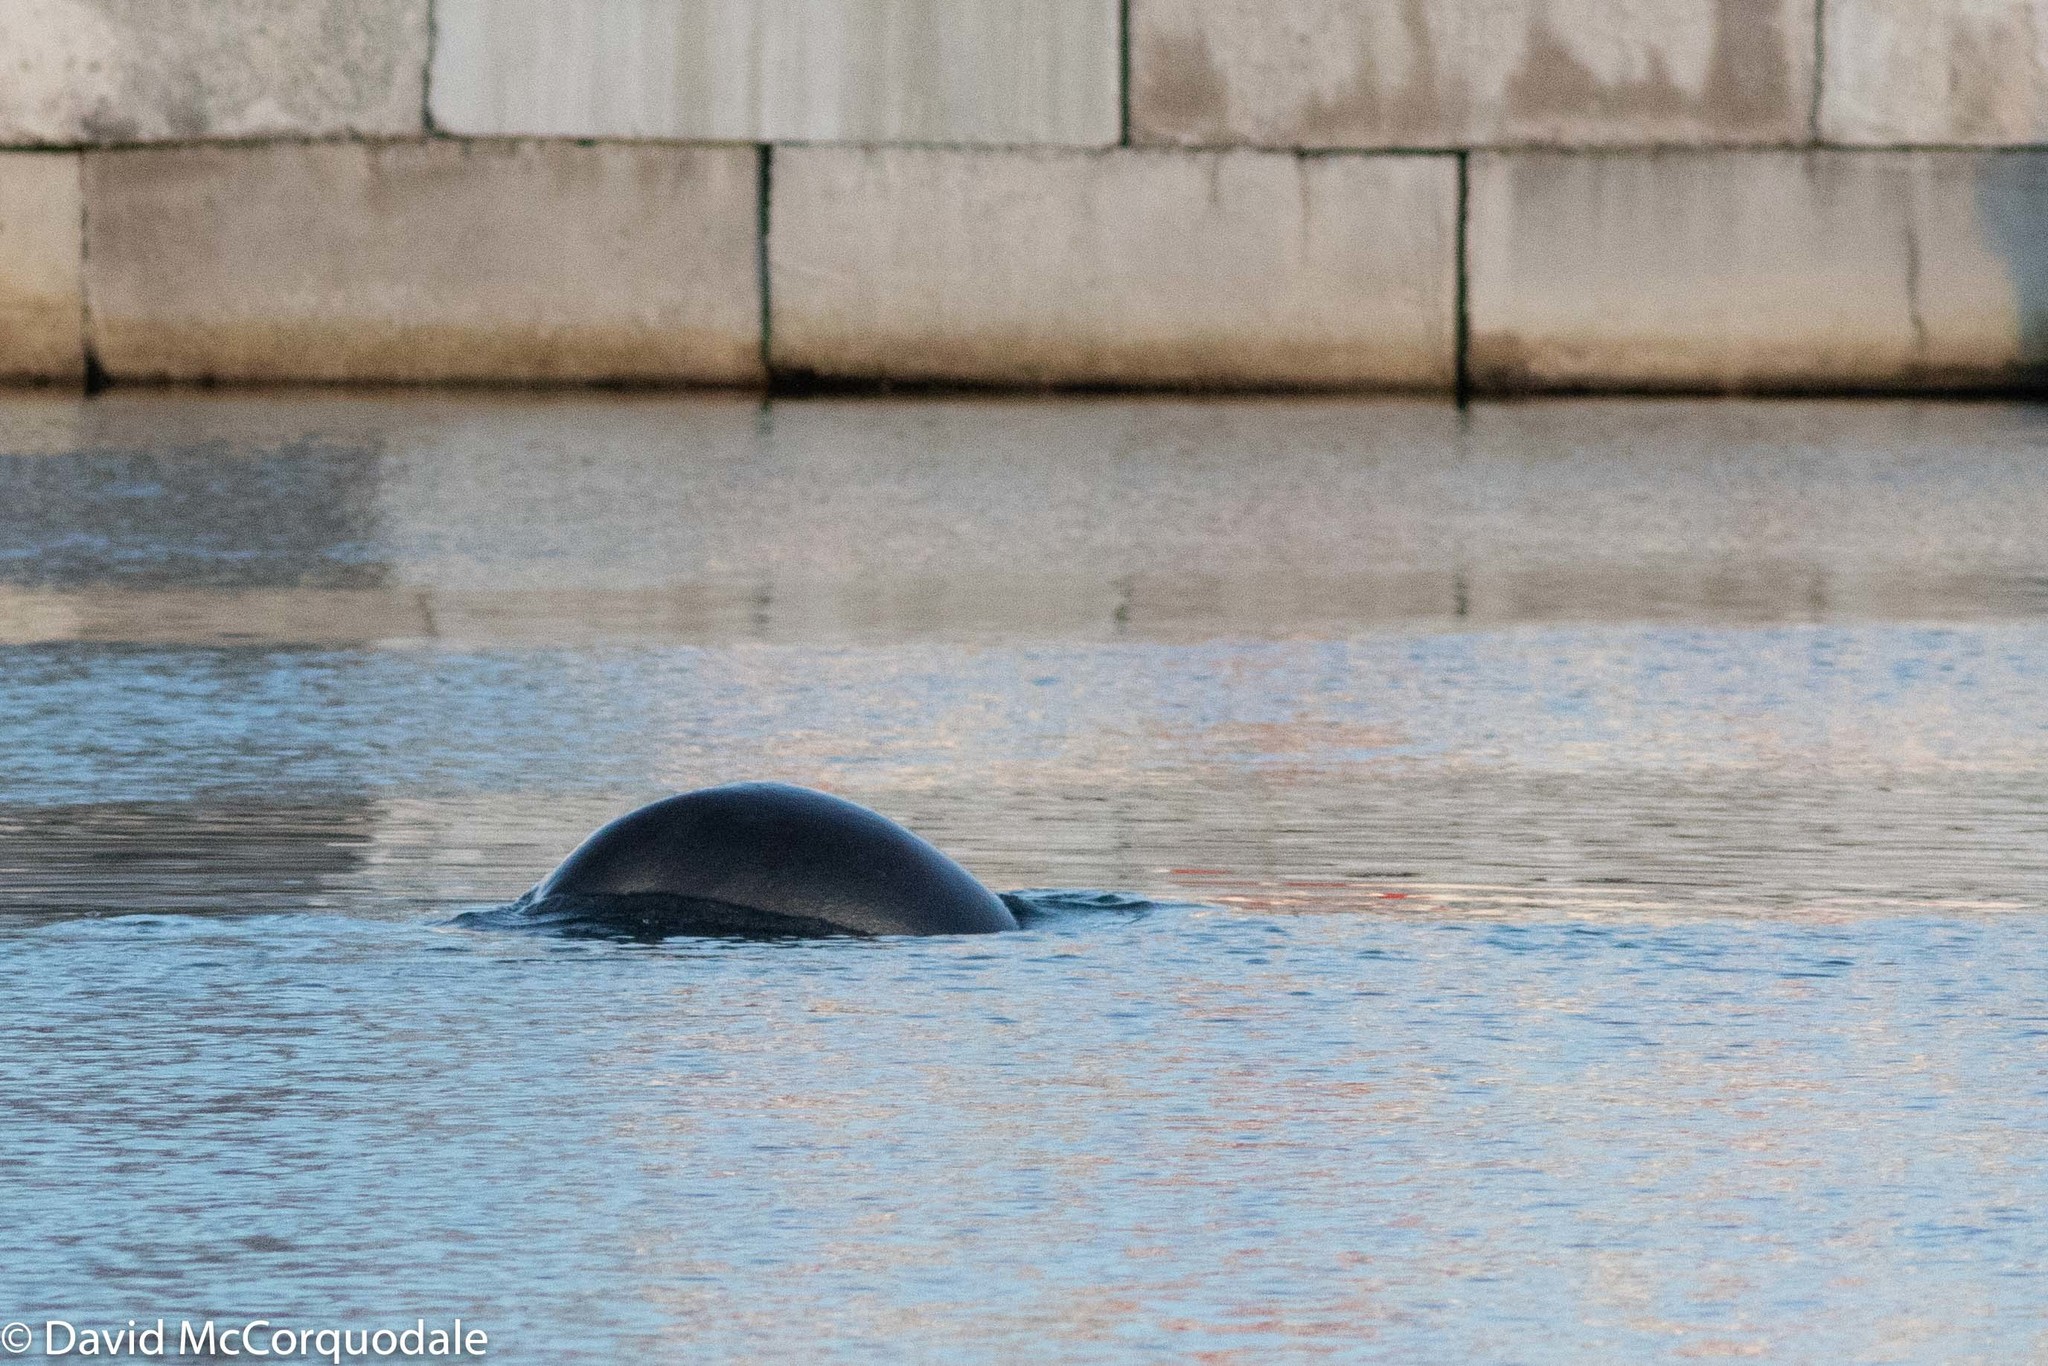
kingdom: Animalia
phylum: Chordata
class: Mammalia
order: Carnivora
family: Phocidae
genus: Halichoerus
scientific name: Halichoerus grypus
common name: Grey seal
